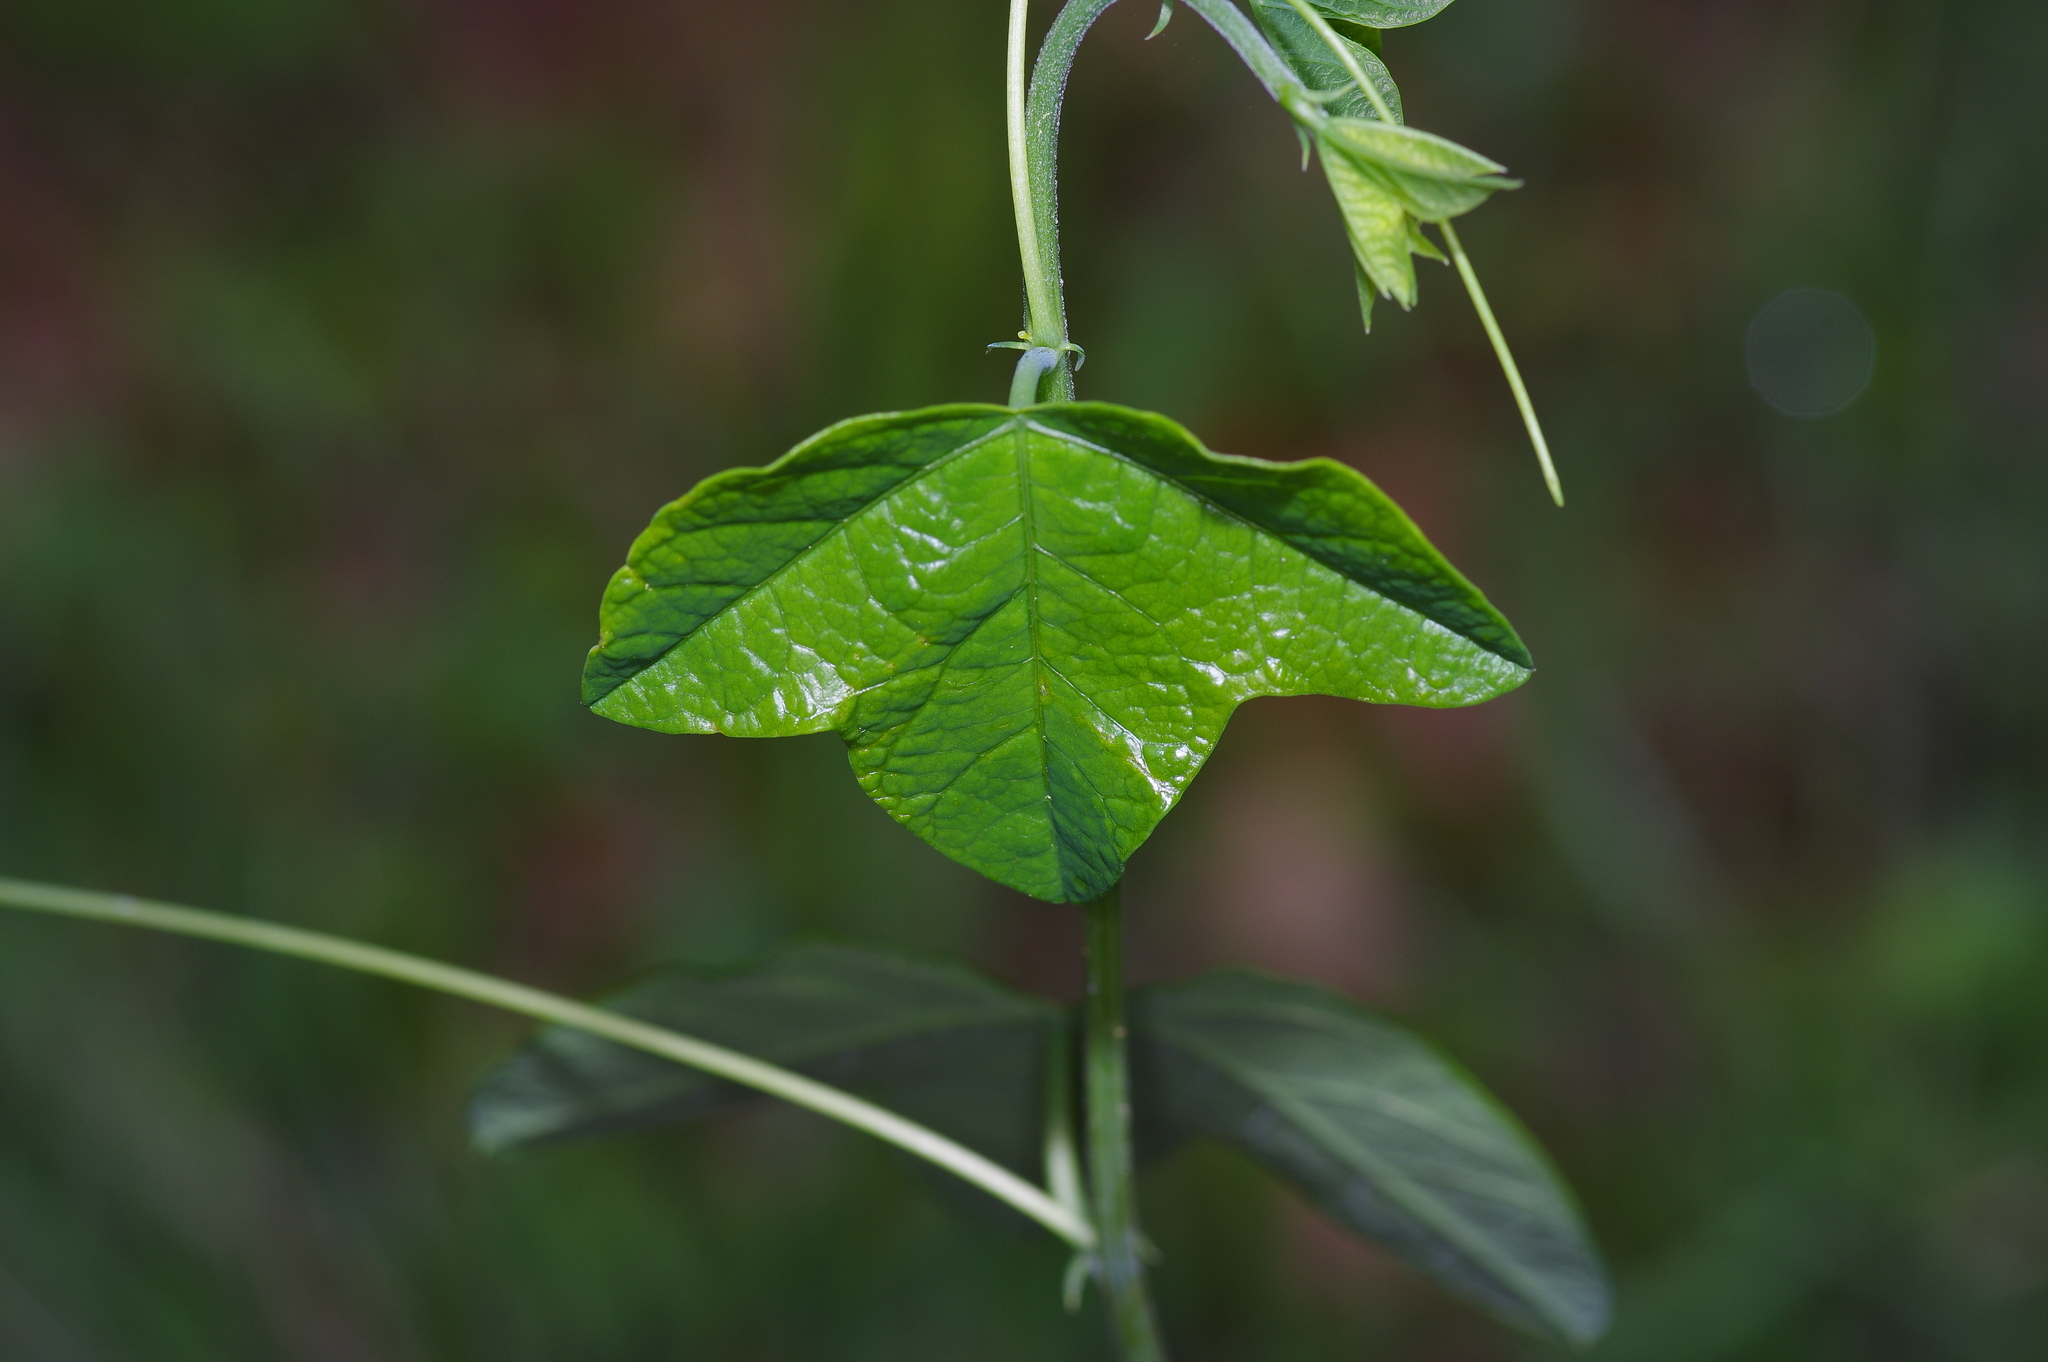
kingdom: Plantae
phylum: Tracheophyta
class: Magnoliopsida
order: Malpighiales
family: Passifloraceae
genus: Passiflora
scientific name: Passiflora lutea
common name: Yellow passionflower
